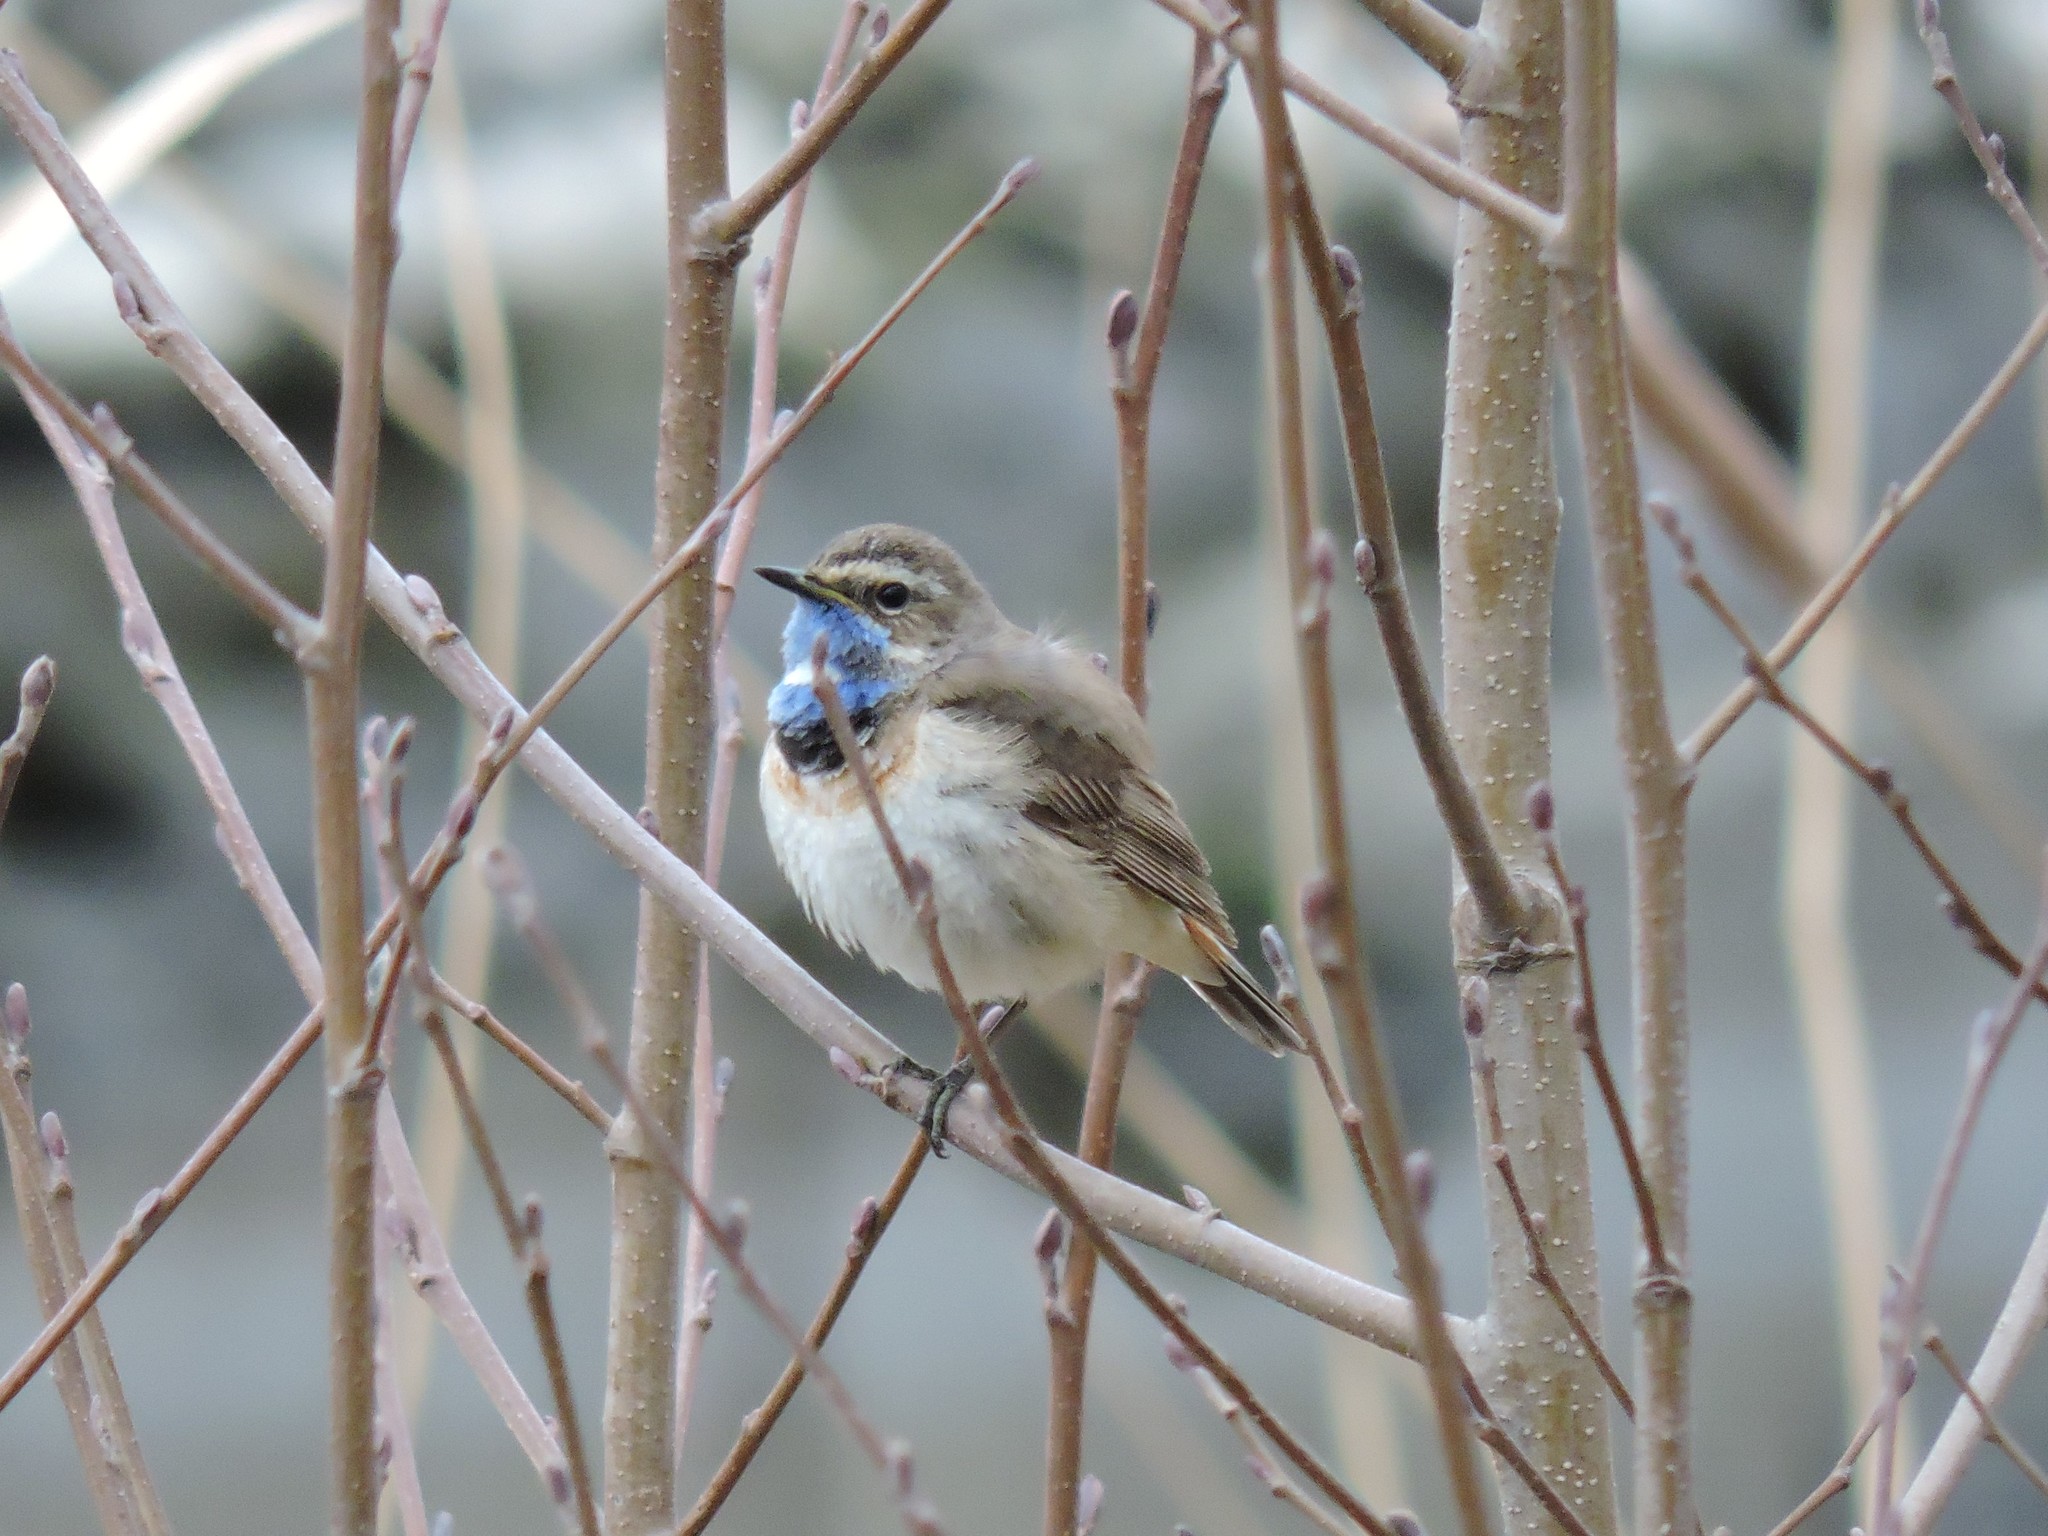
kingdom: Animalia
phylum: Chordata
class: Aves
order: Passeriformes
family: Muscicapidae
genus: Luscinia
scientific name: Luscinia svecica
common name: Bluethroat
